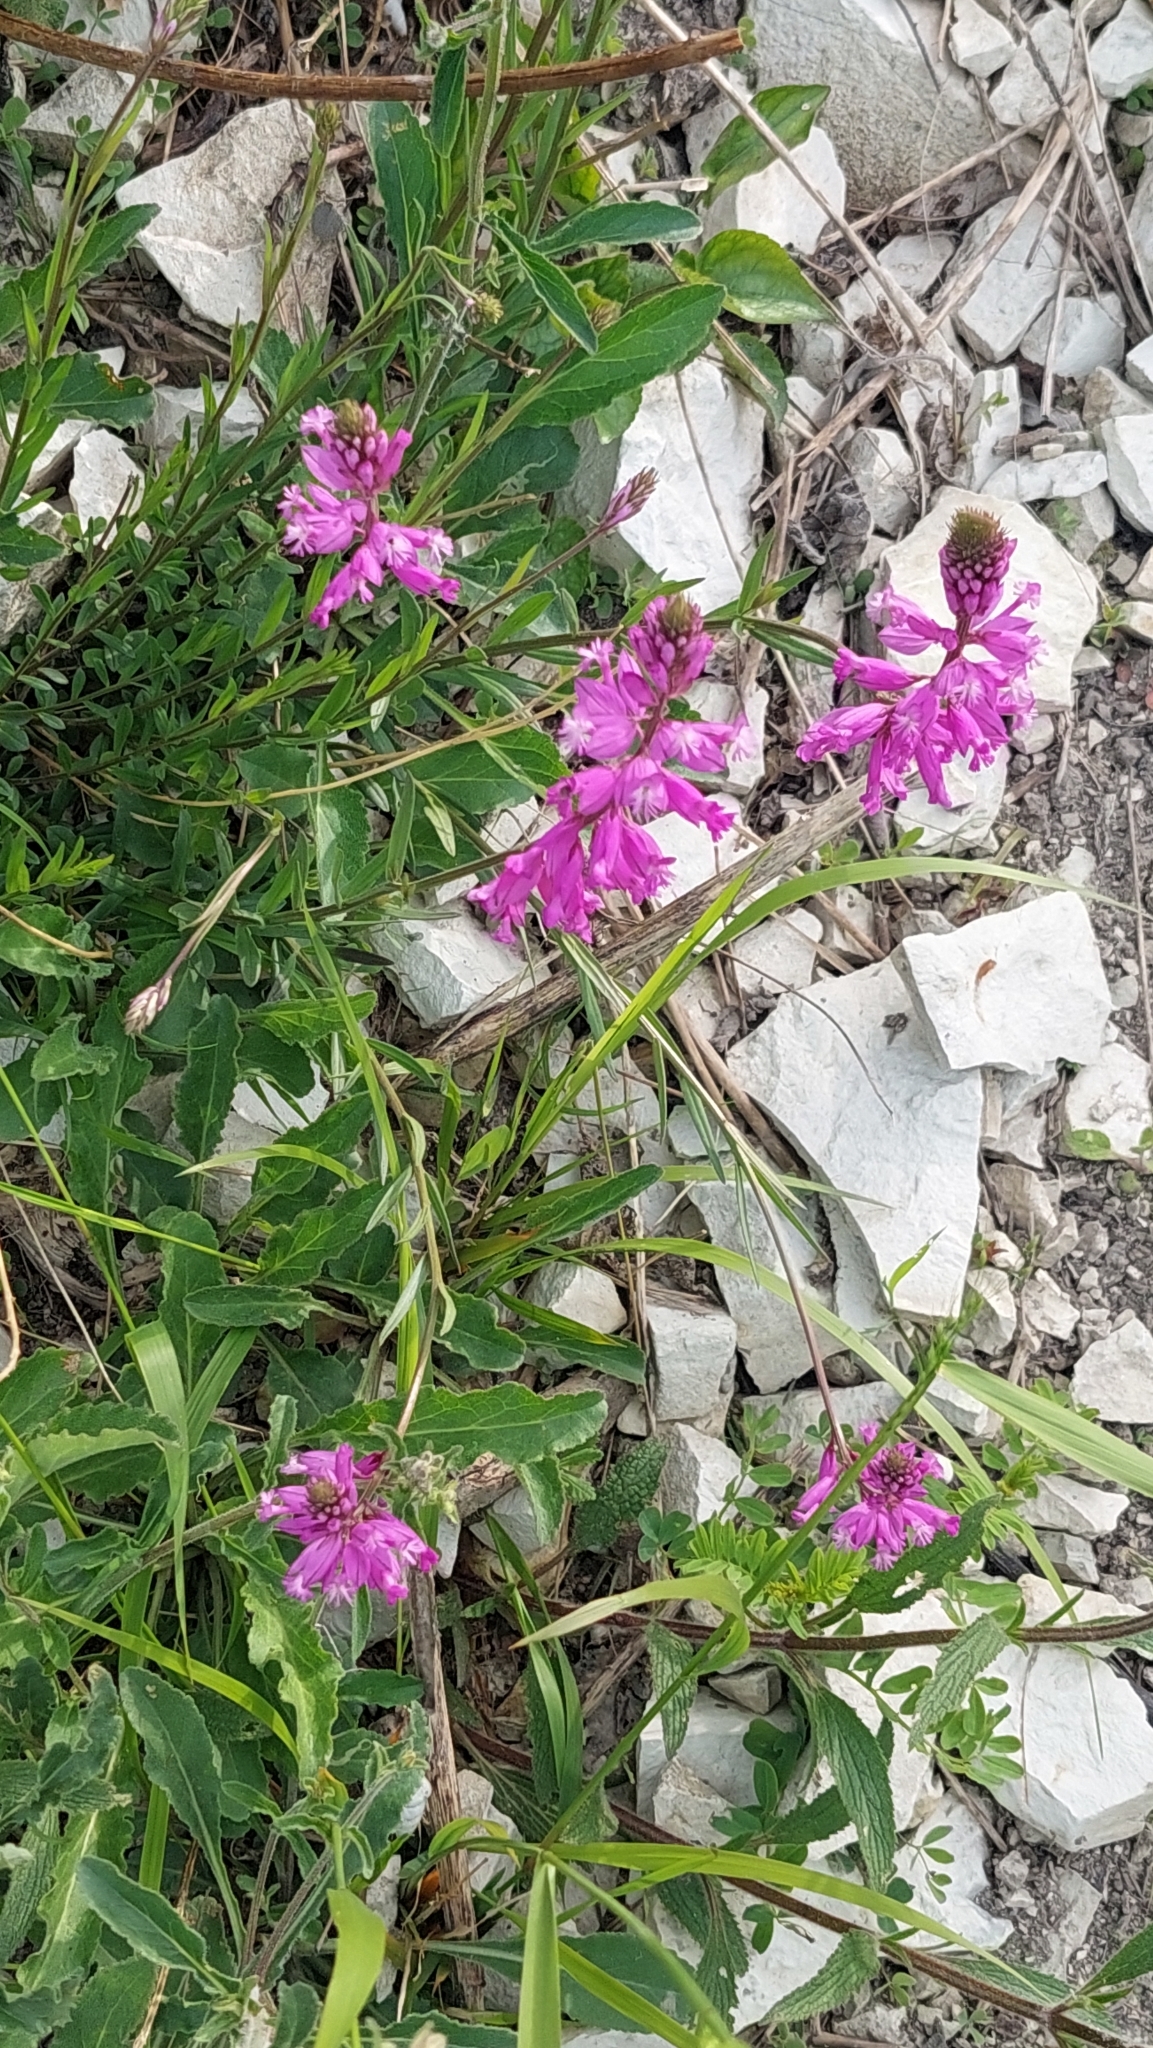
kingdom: Plantae
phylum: Tracheophyta
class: Magnoliopsida
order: Fabales
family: Polygalaceae
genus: Polygala
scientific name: Polygala major
